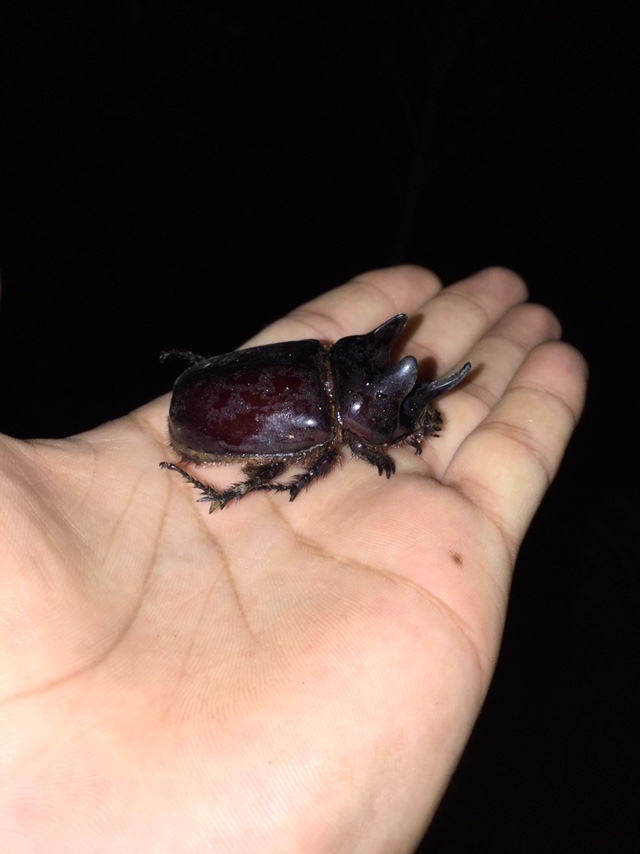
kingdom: Animalia
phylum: Arthropoda
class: Insecta
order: Coleoptera
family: Scarabaeidae
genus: Strategus
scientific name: Strategus aloeus
